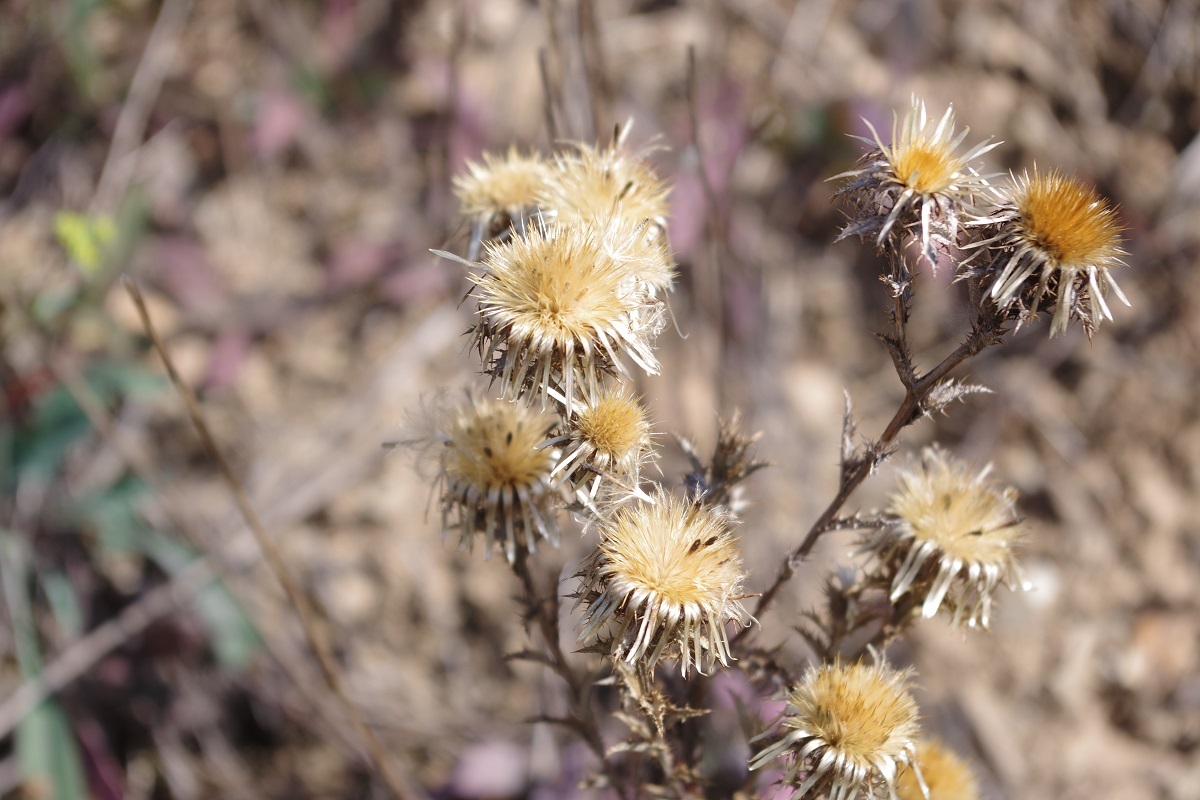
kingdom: Plantae
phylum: Tracheophyta
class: Magnoliopsida
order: Asterales
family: Asteraceae
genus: Carlina
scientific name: Carlina vulgaris
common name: Carline thistle
